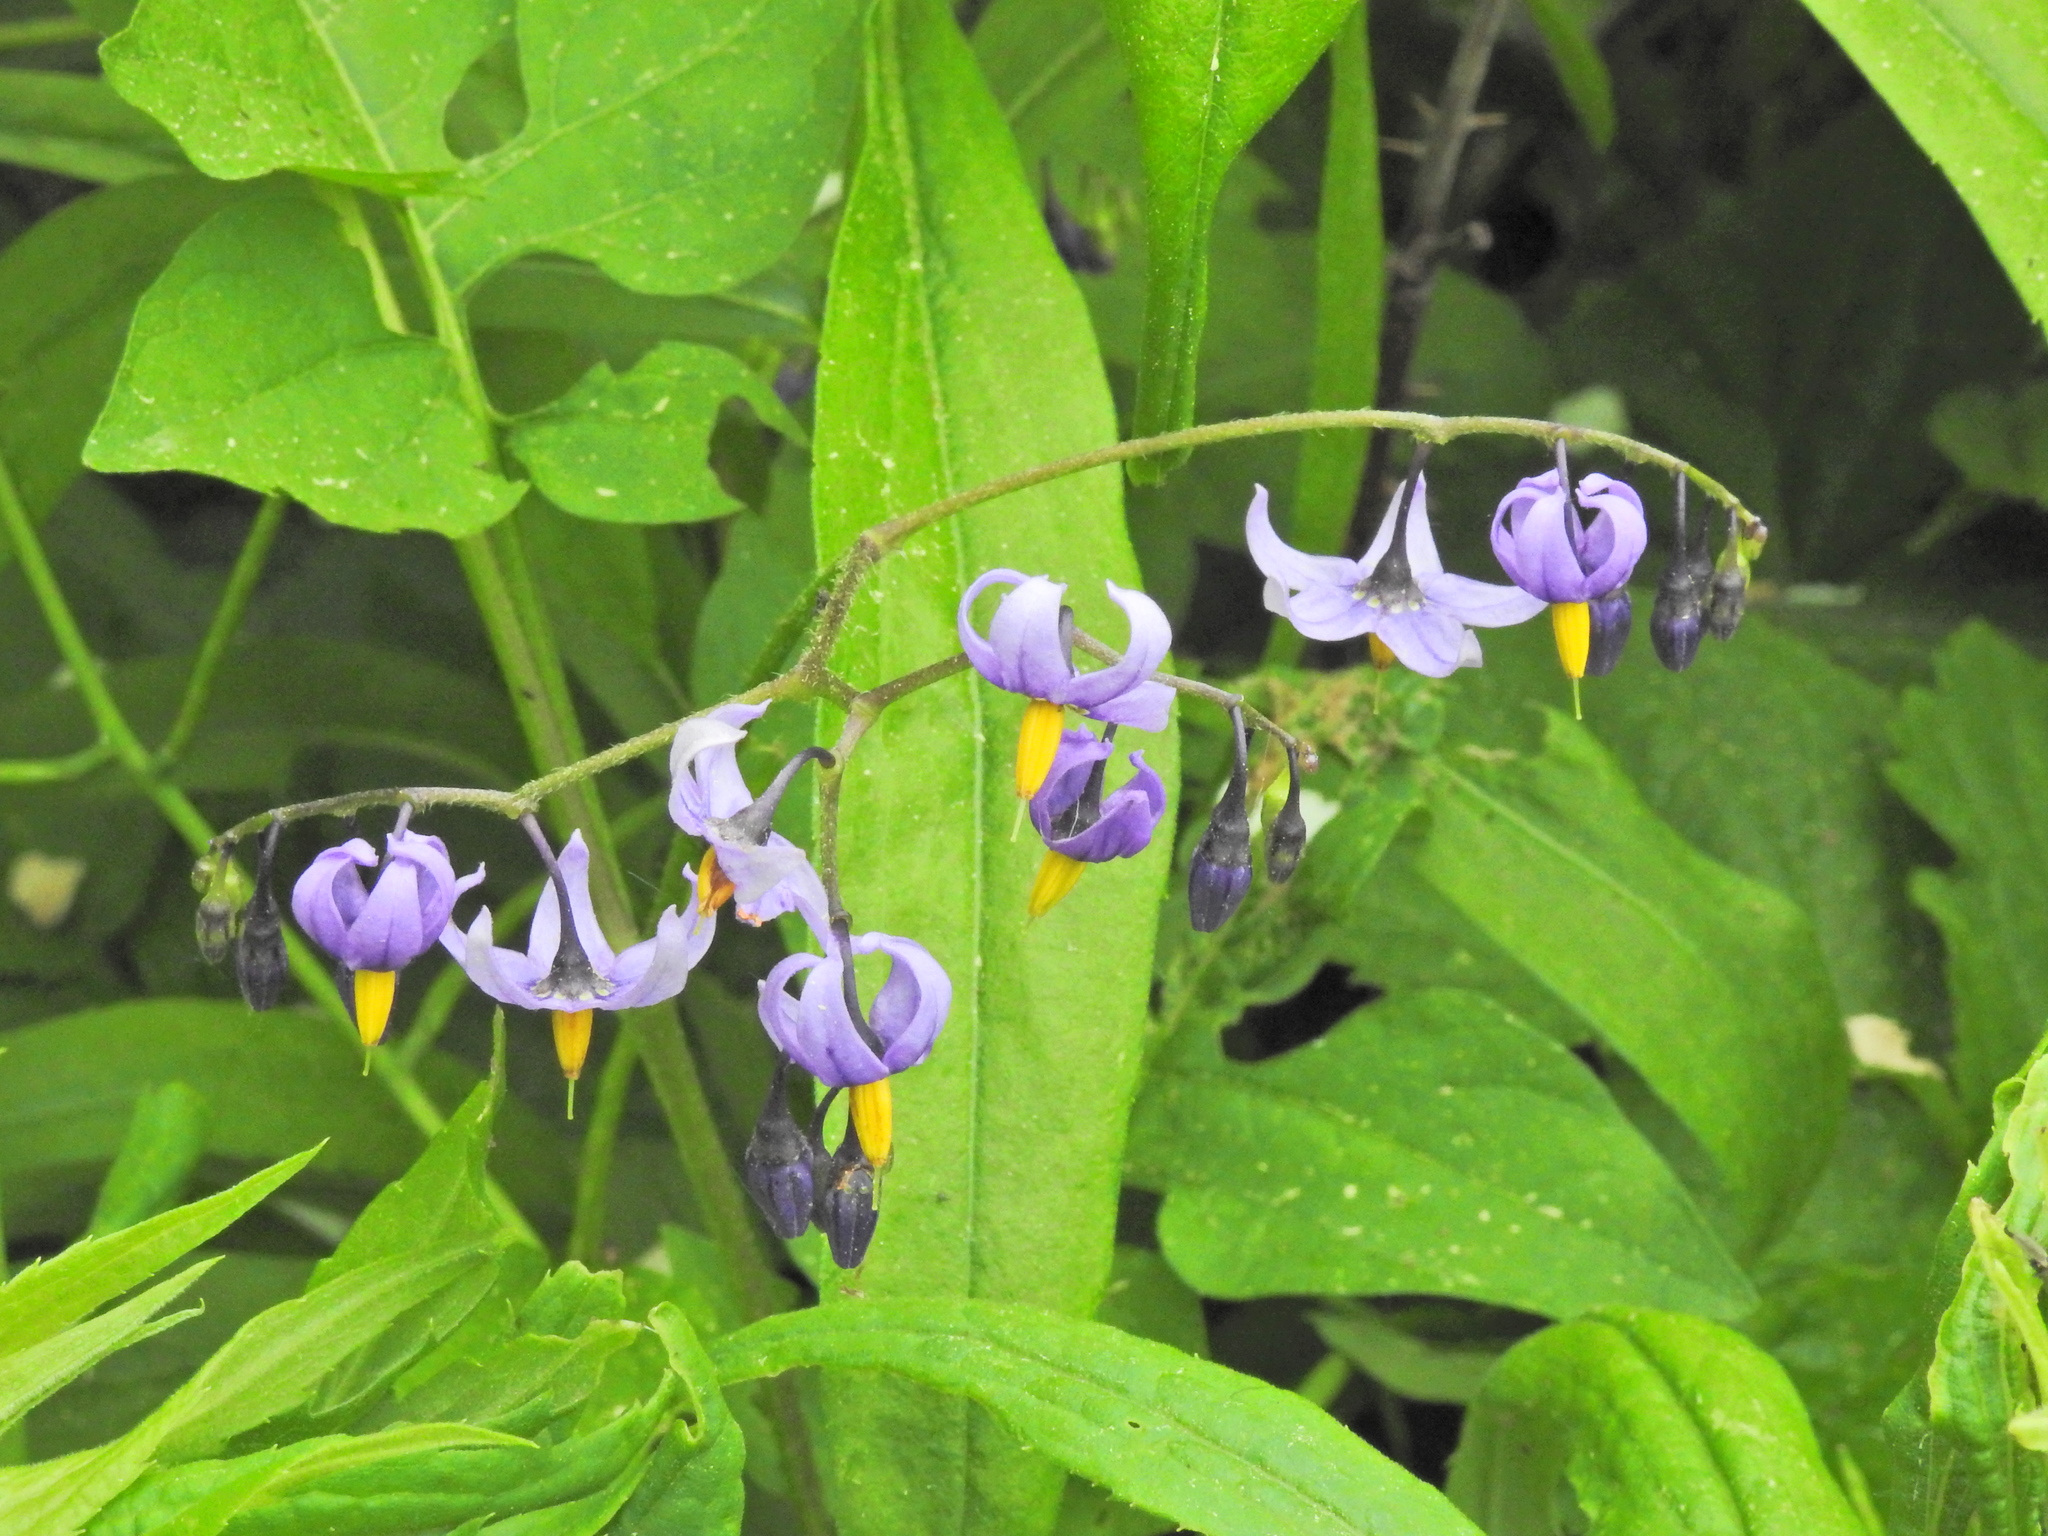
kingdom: Plantae
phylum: Tracheophyta
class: Magnoliopsida
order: Solanales
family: Solanaceae
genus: Solanum
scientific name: Solanum dulcamara
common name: Climbing nightshade
